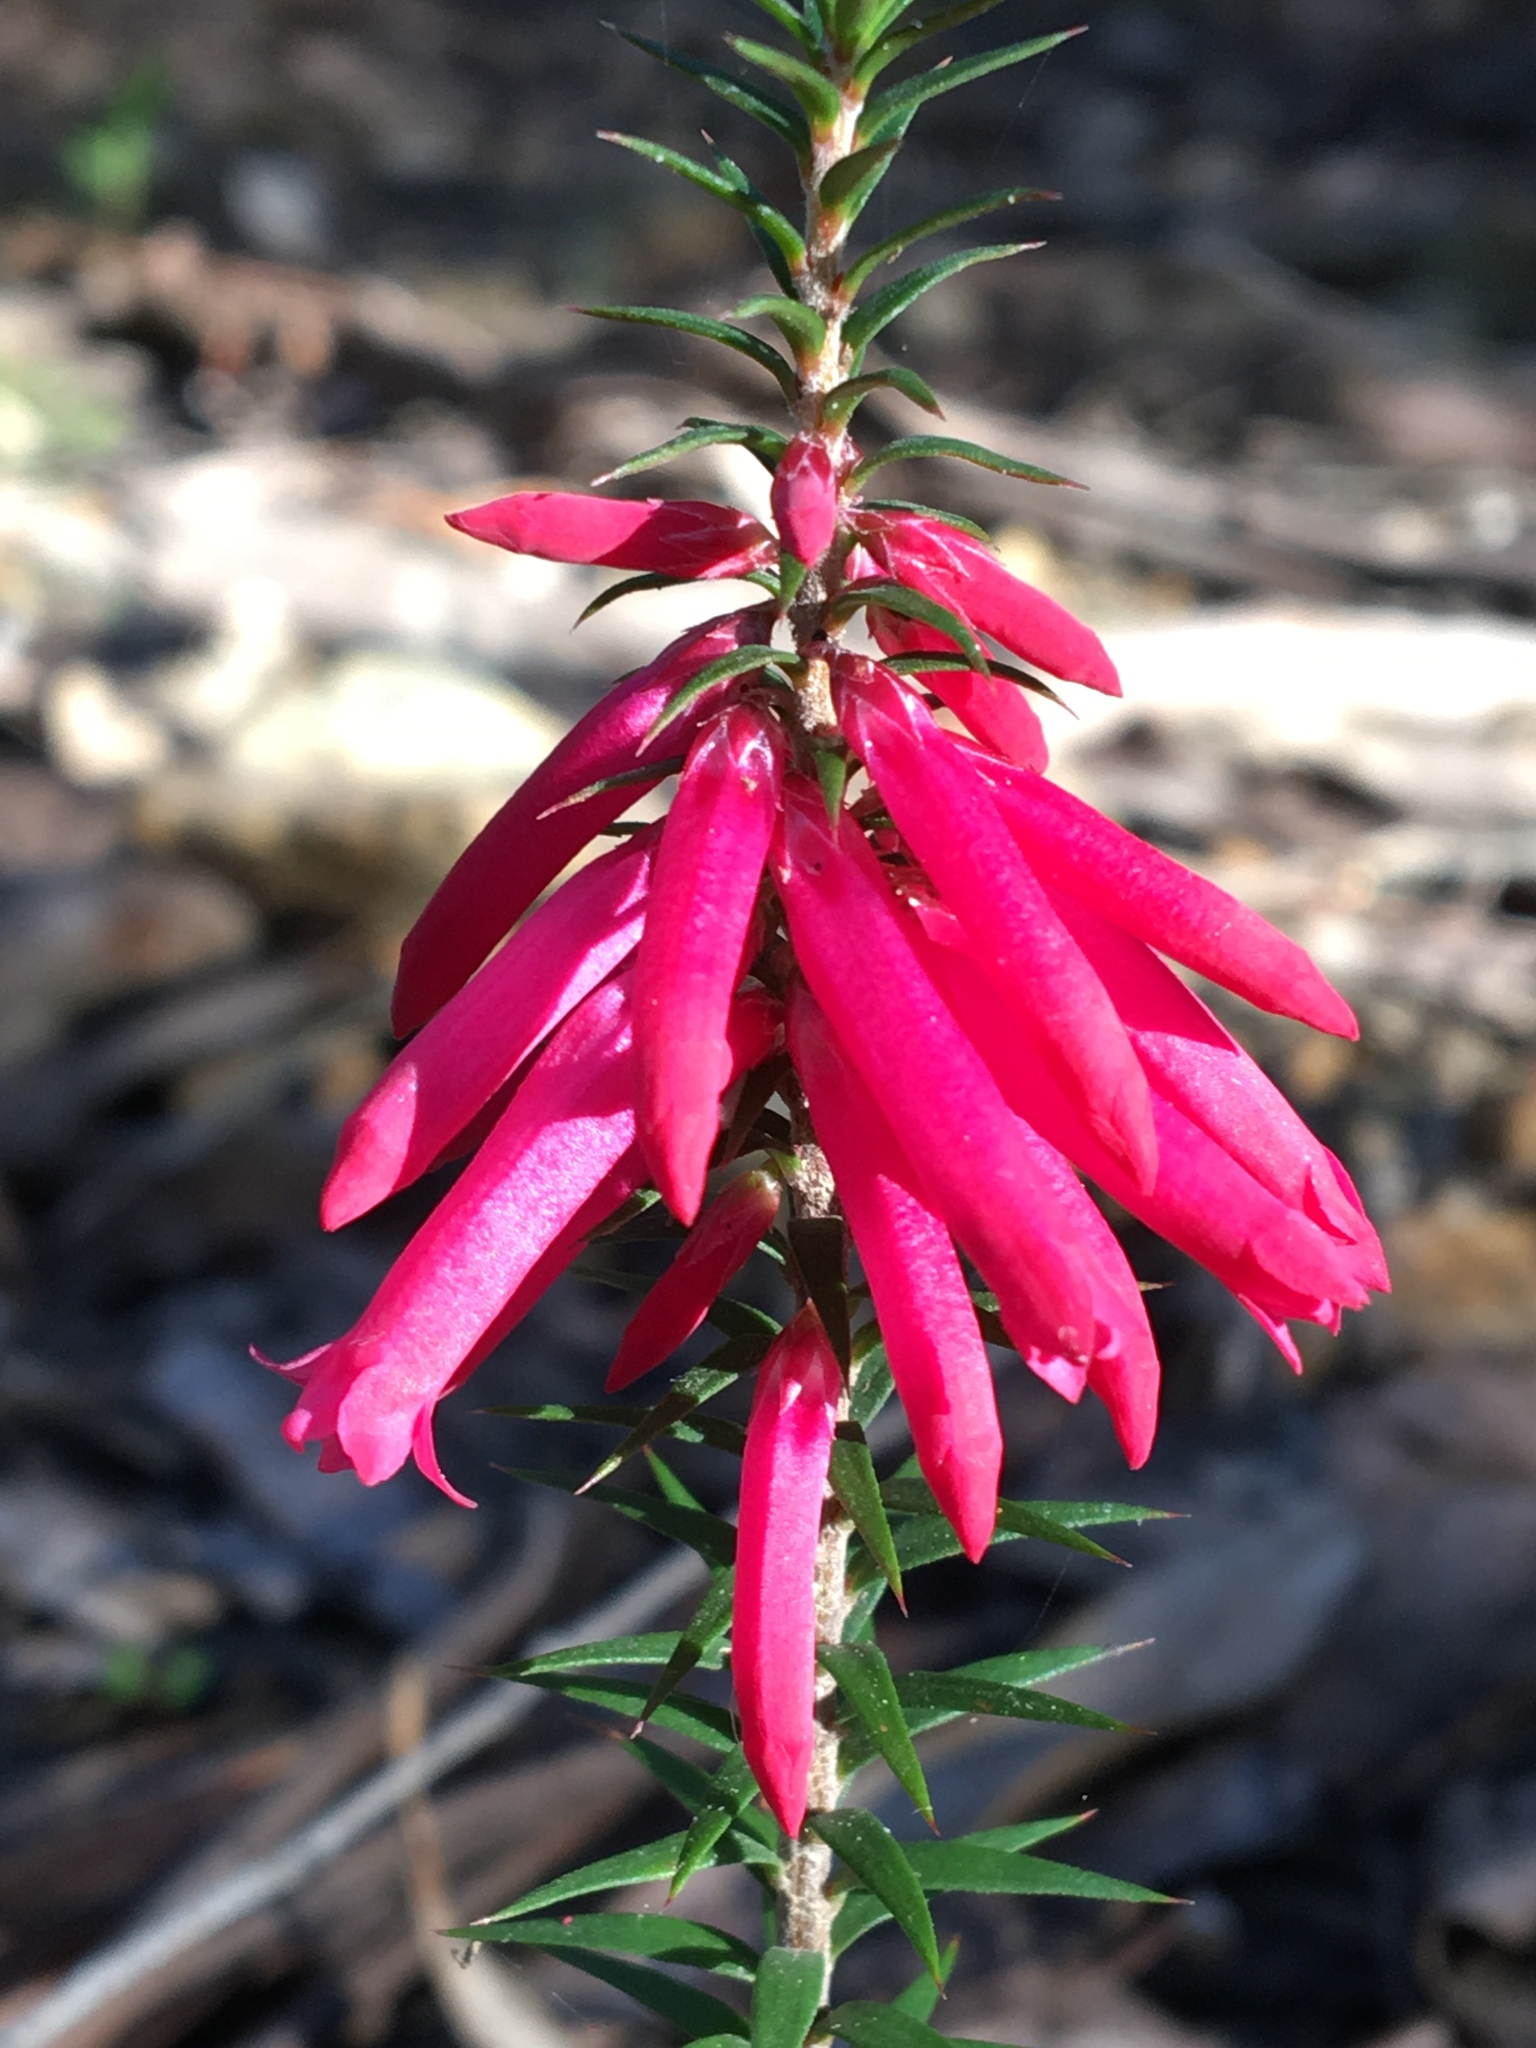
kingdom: Plantae
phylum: Tracheophyta
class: Magnoliopsida
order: Ericales
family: Ericaceae
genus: Epacris
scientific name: Epacris impressa
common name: Common-heath
